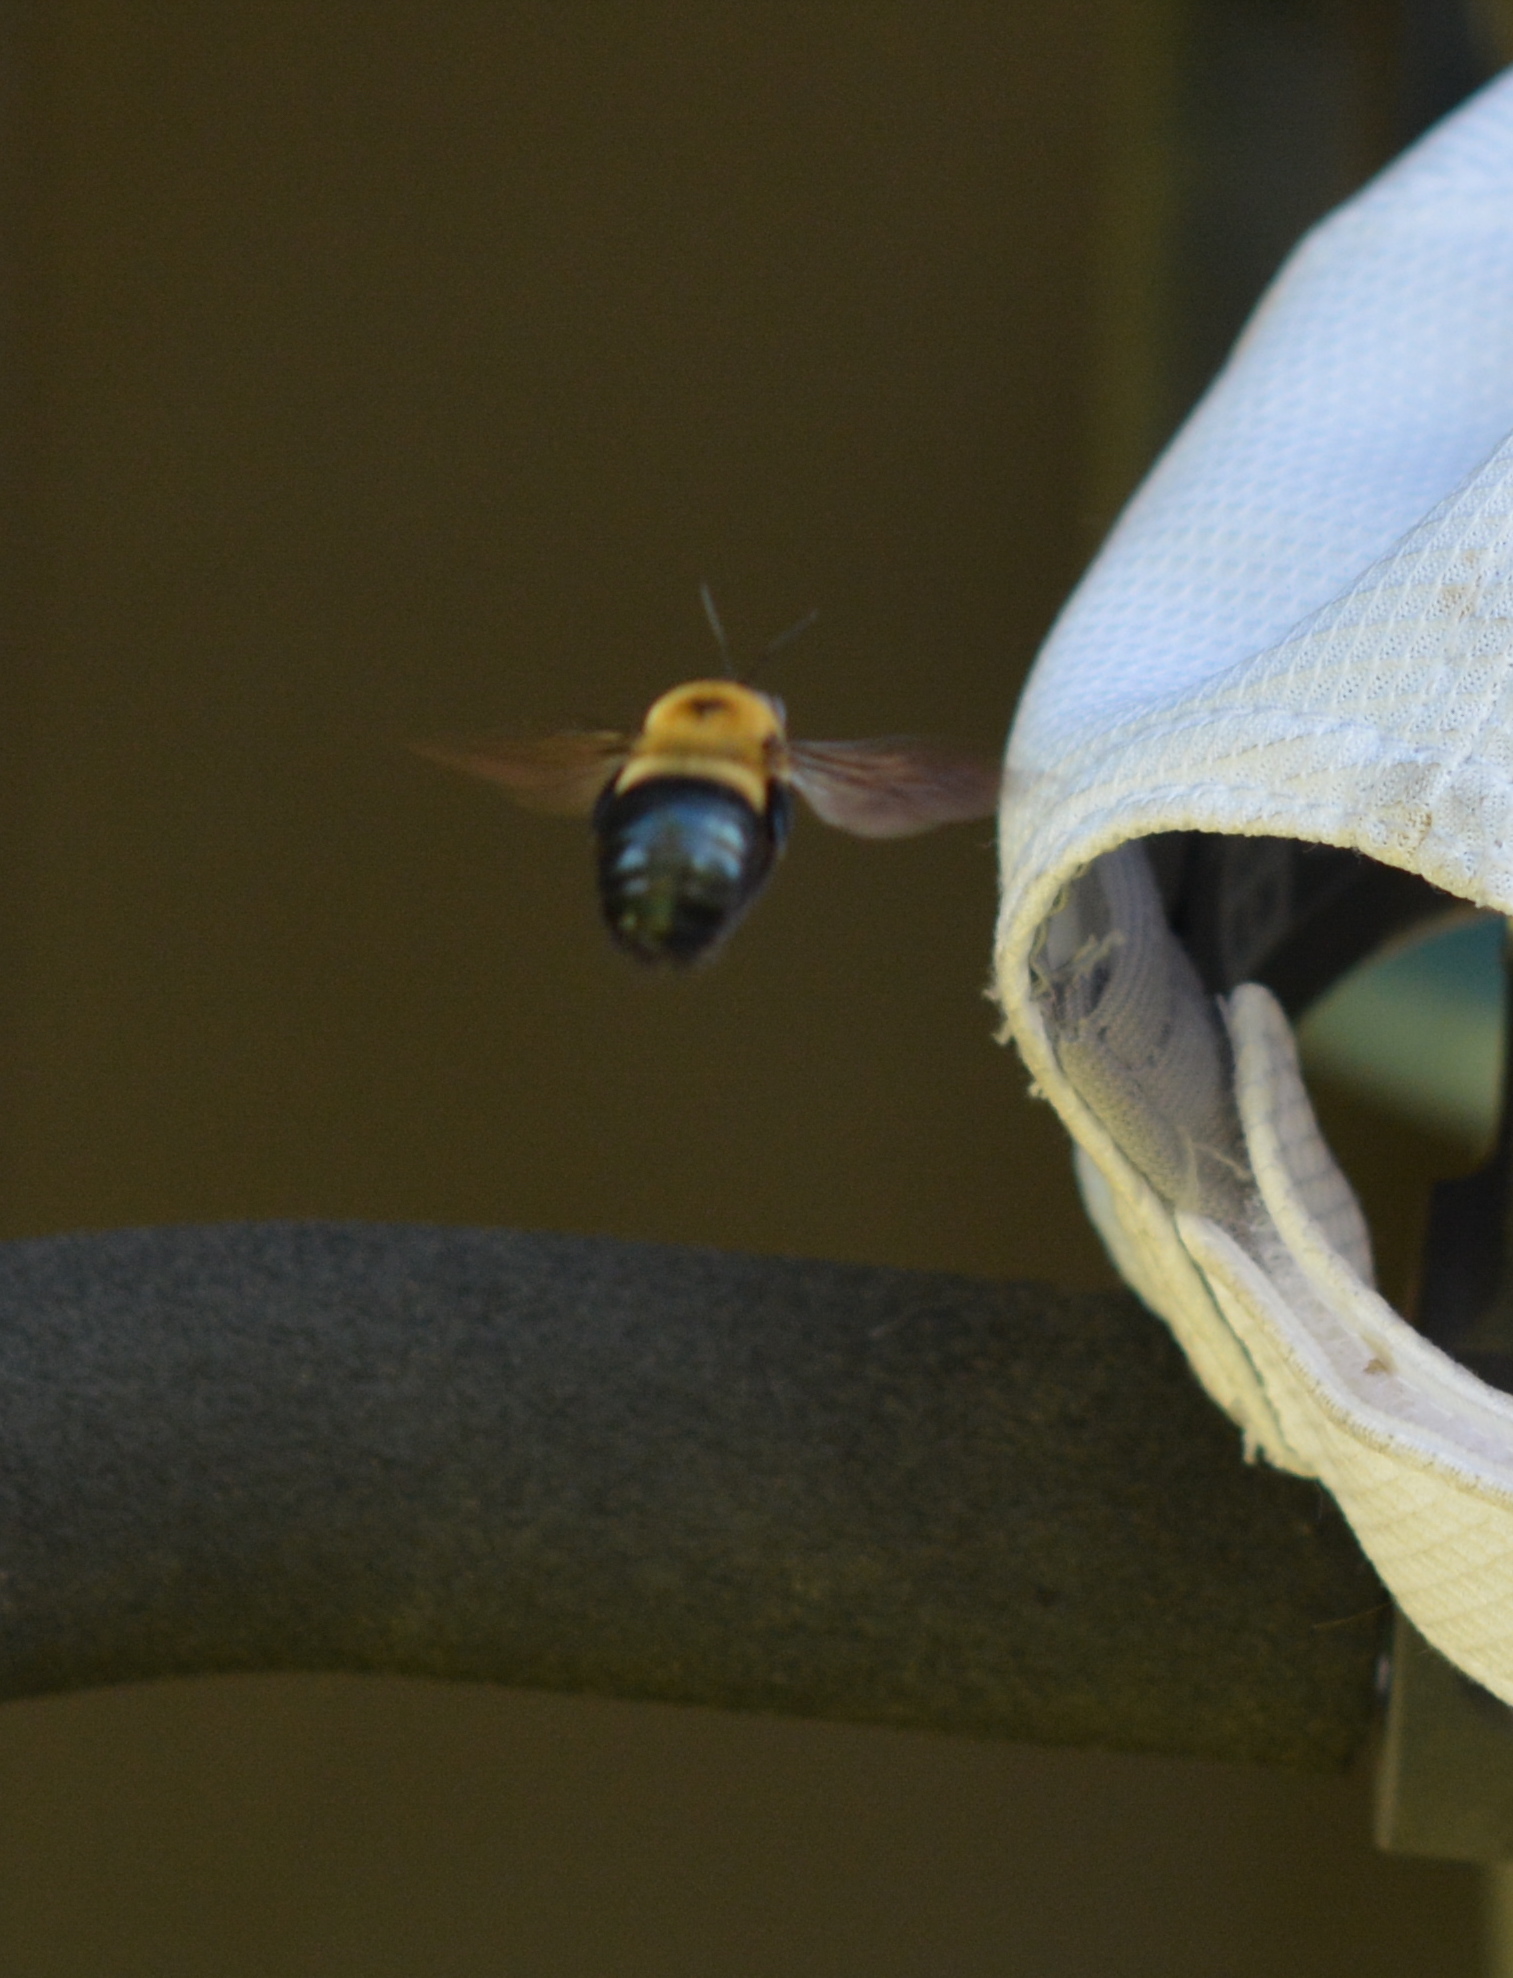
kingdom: Animalia
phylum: Arthropoda
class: Insecta
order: Hymenoptera
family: Apidae
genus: Xylocopa
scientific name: Xylocopa virginica
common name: Carpenter bee
